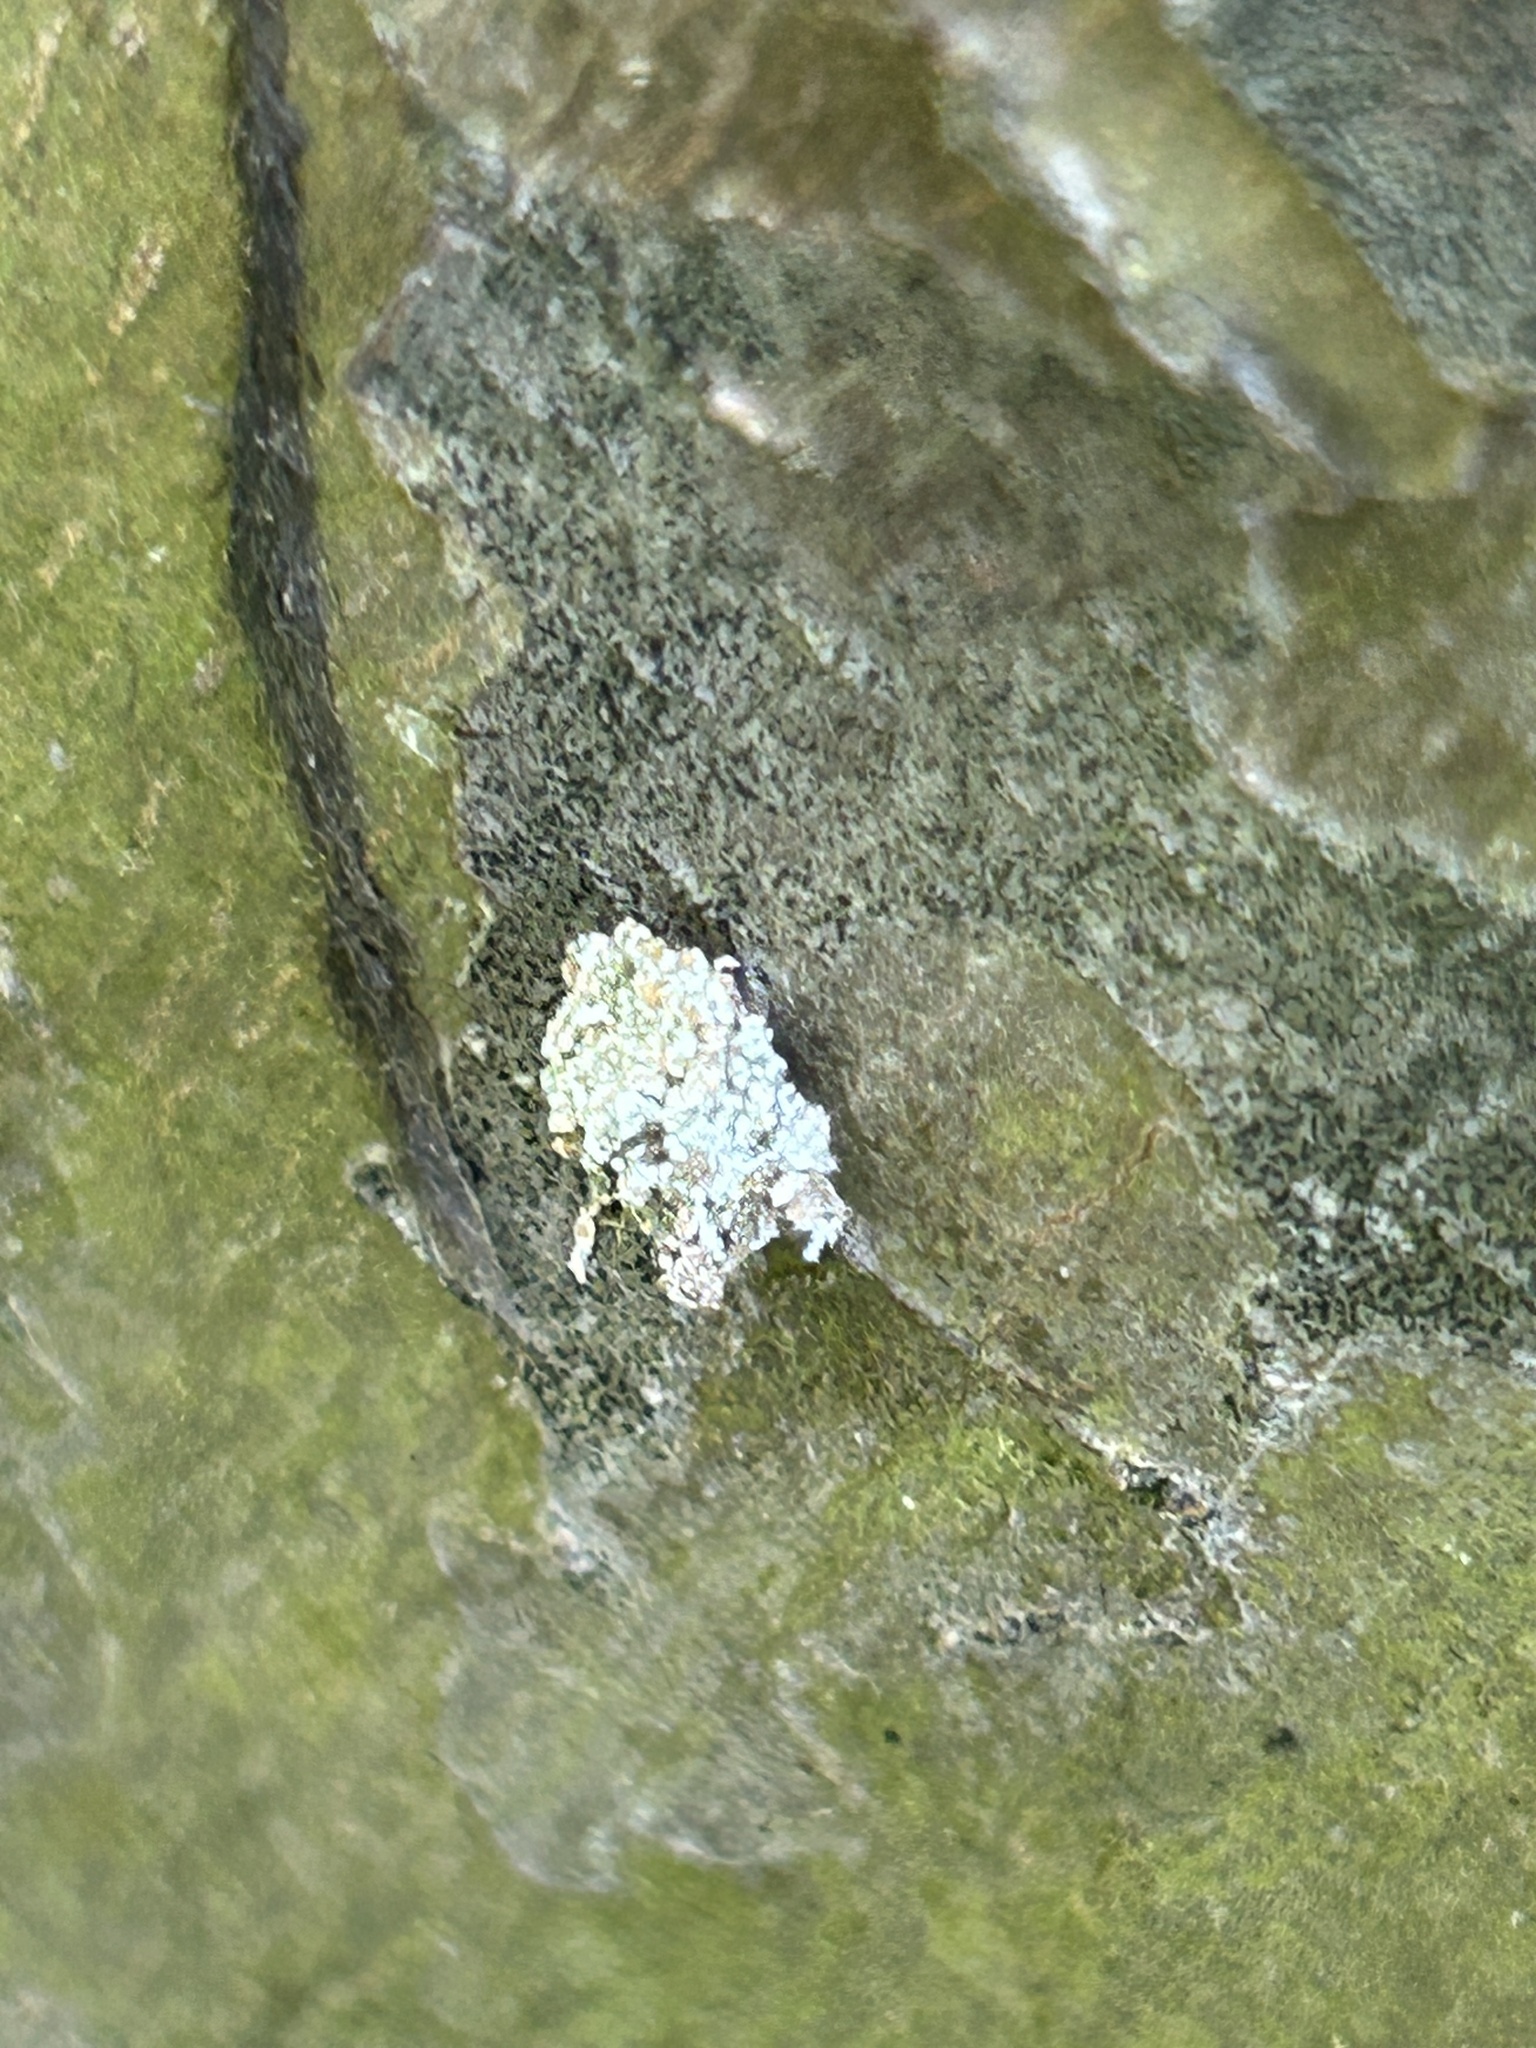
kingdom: Animalia
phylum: Arthropoda
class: Insecta
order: Neuroptera
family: Chrysopidae
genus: Leucochrysa
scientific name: Leucochrysa pavida
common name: Lichen-carrying green lacewing
